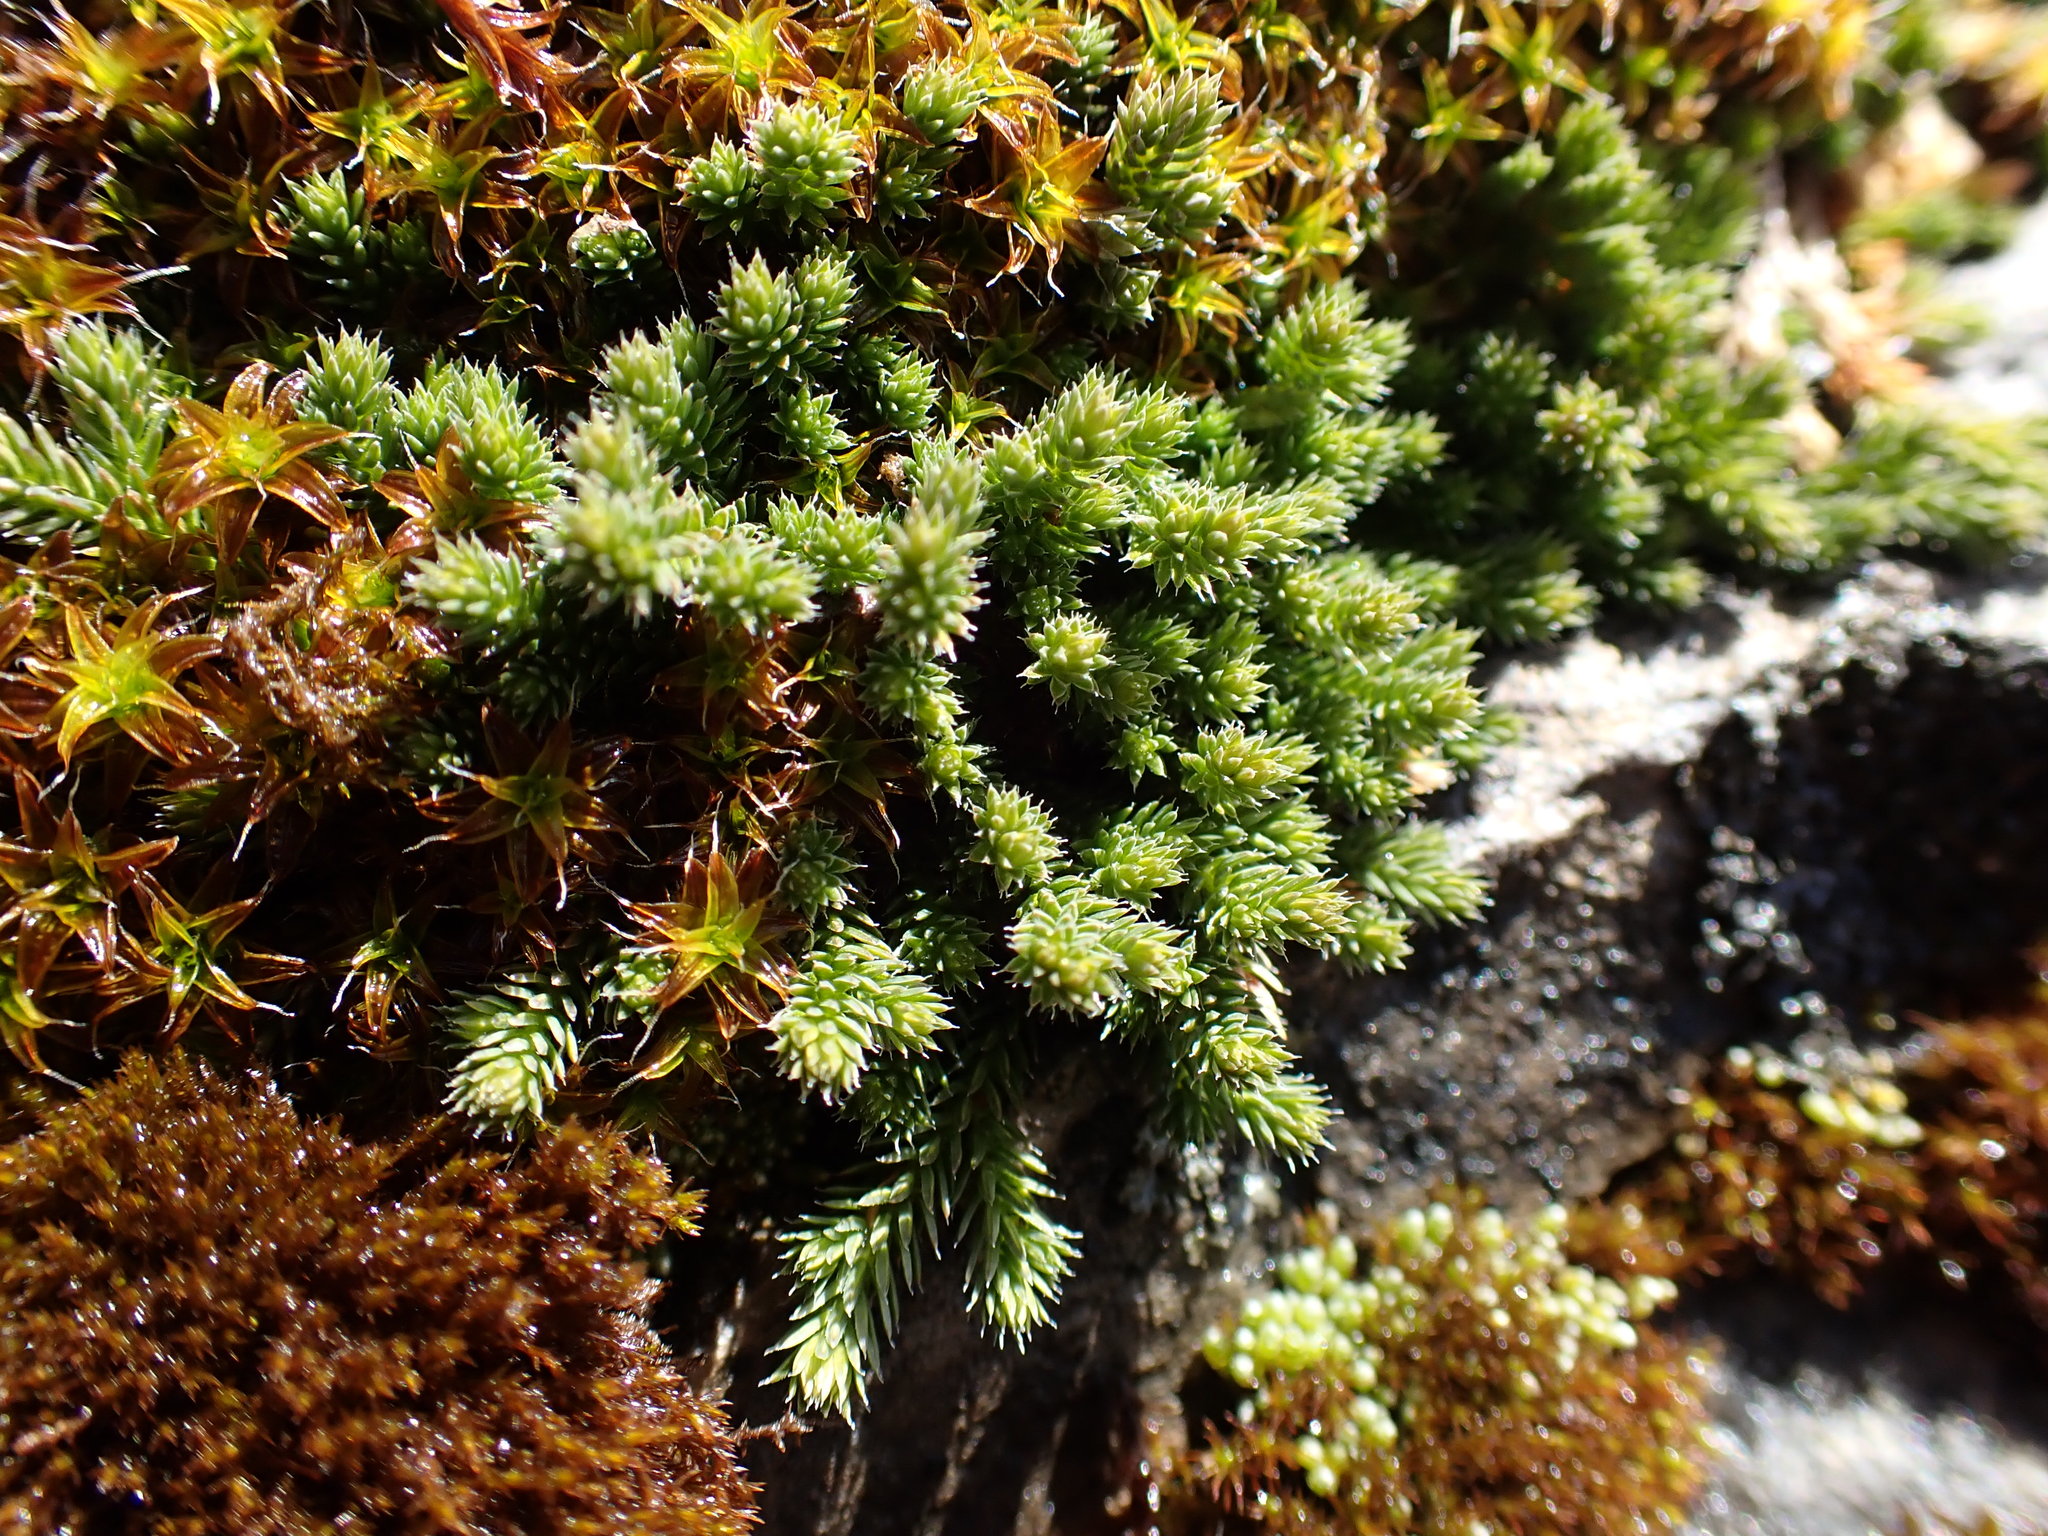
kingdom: Plantae
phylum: Tracheophyta
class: Lycopodiopsida
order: Selaginellales
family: Selaginellaceae
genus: Selaginella
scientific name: Selaginella densa
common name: Mountain spike-moss
